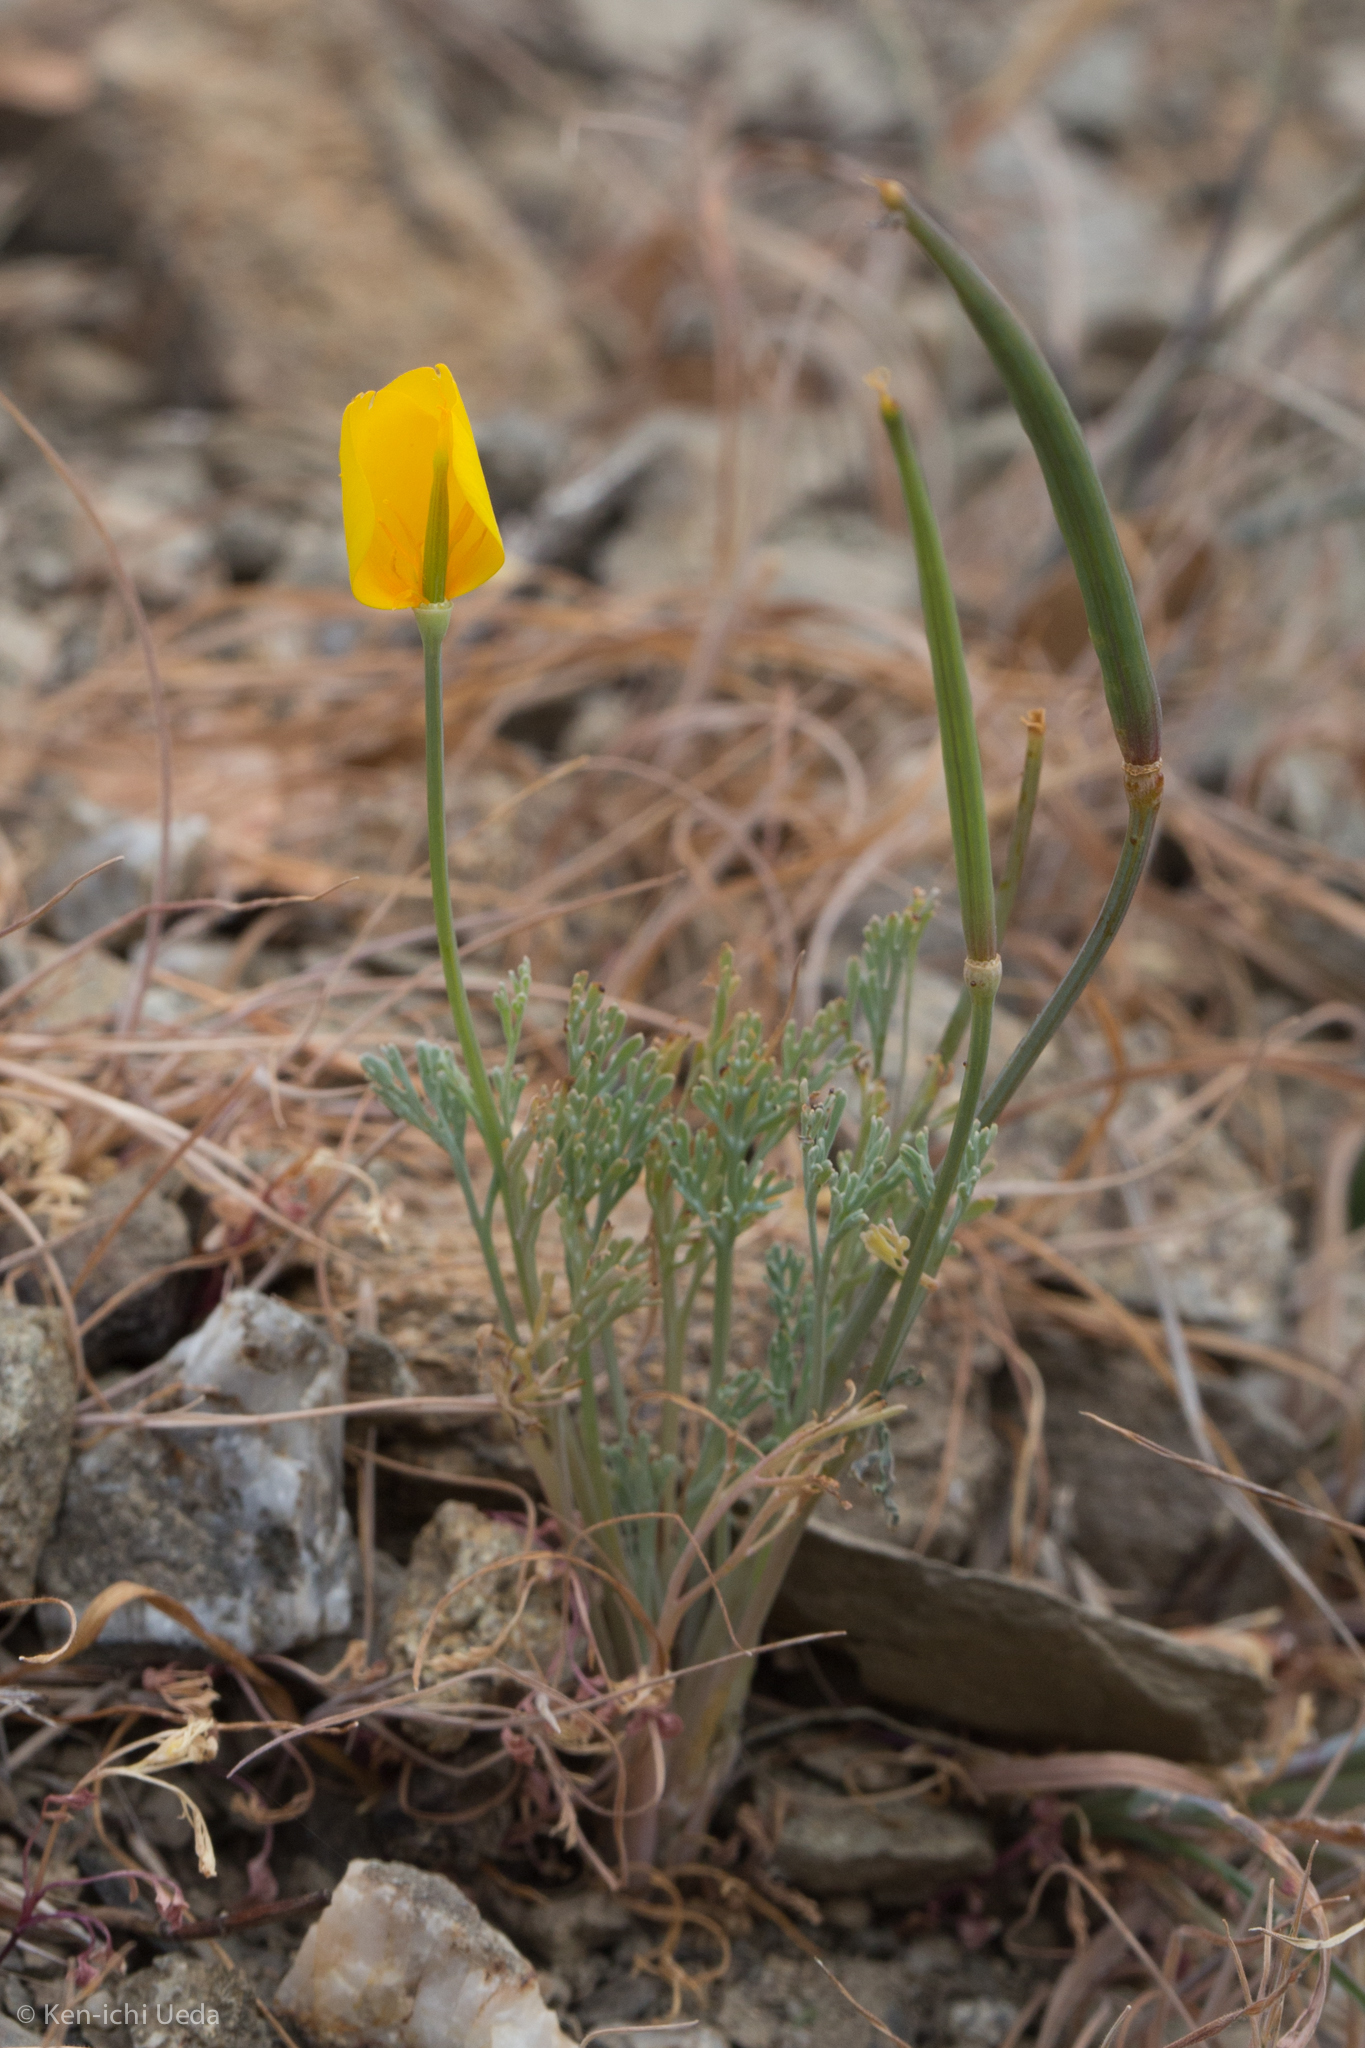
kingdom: Plantae
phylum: Tracheophyta
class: Magnoliopsida
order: Ranunculales
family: Papaveraceae
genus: Eschscholzia
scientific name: Eschscholzia caespitosa
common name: Tufted california-poppy
